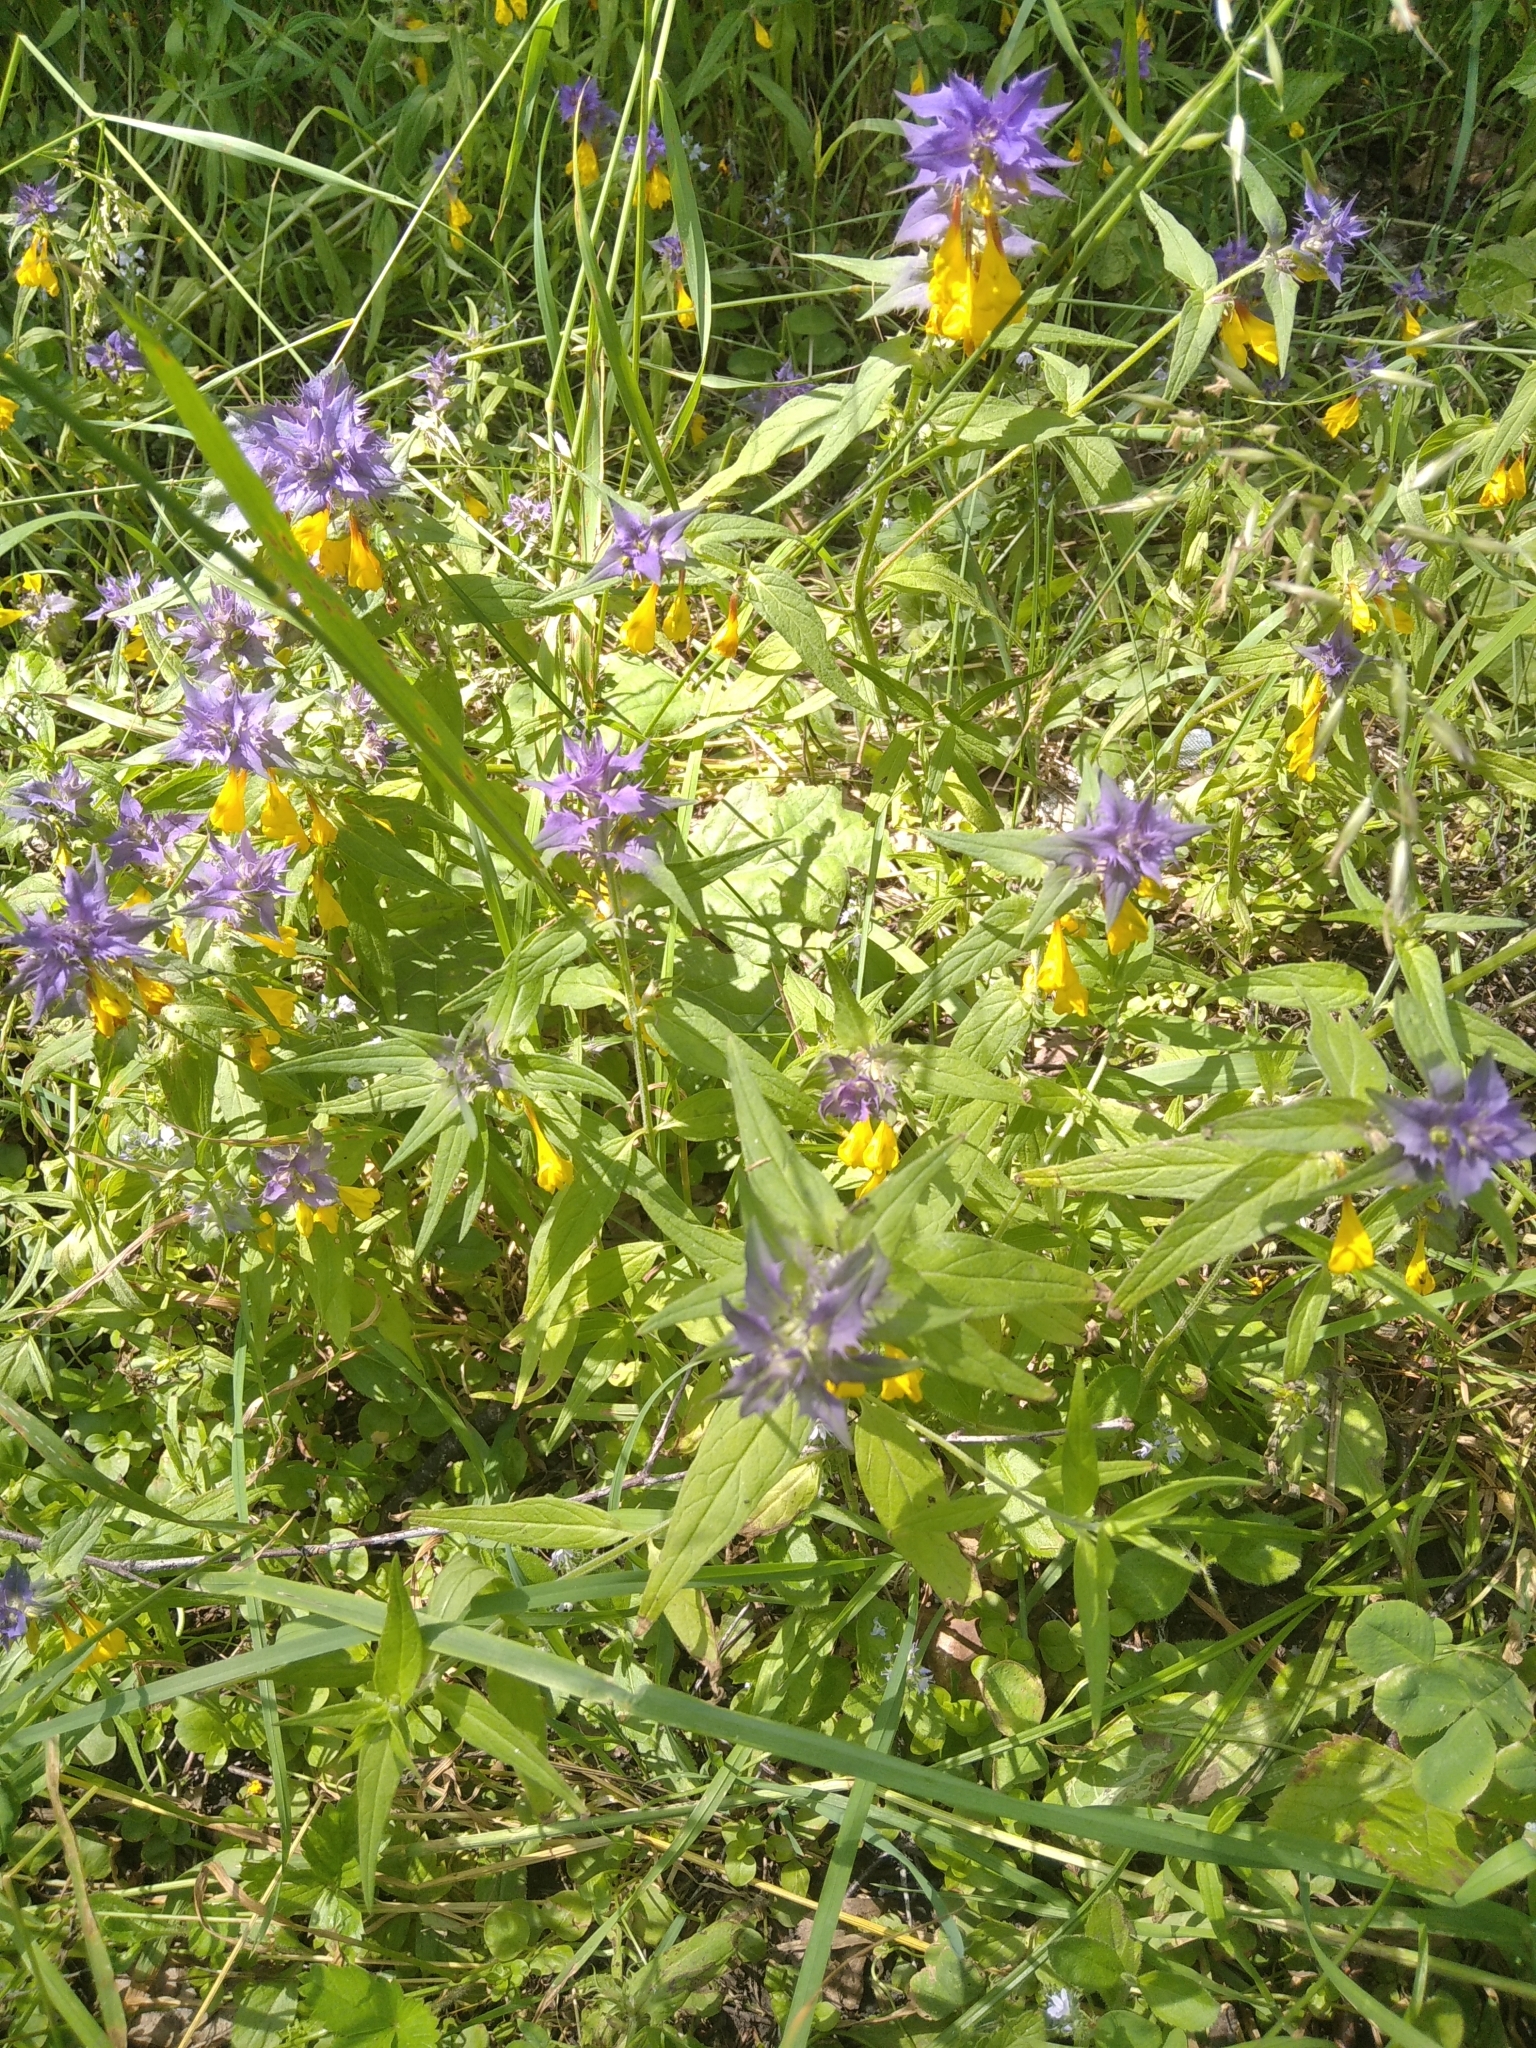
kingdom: Plantae
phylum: Tracheophyta
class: Magnoliopsida
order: Lamiales
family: Orobanchaceae
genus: Melampyrum
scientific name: Melampyrum nemorosum
